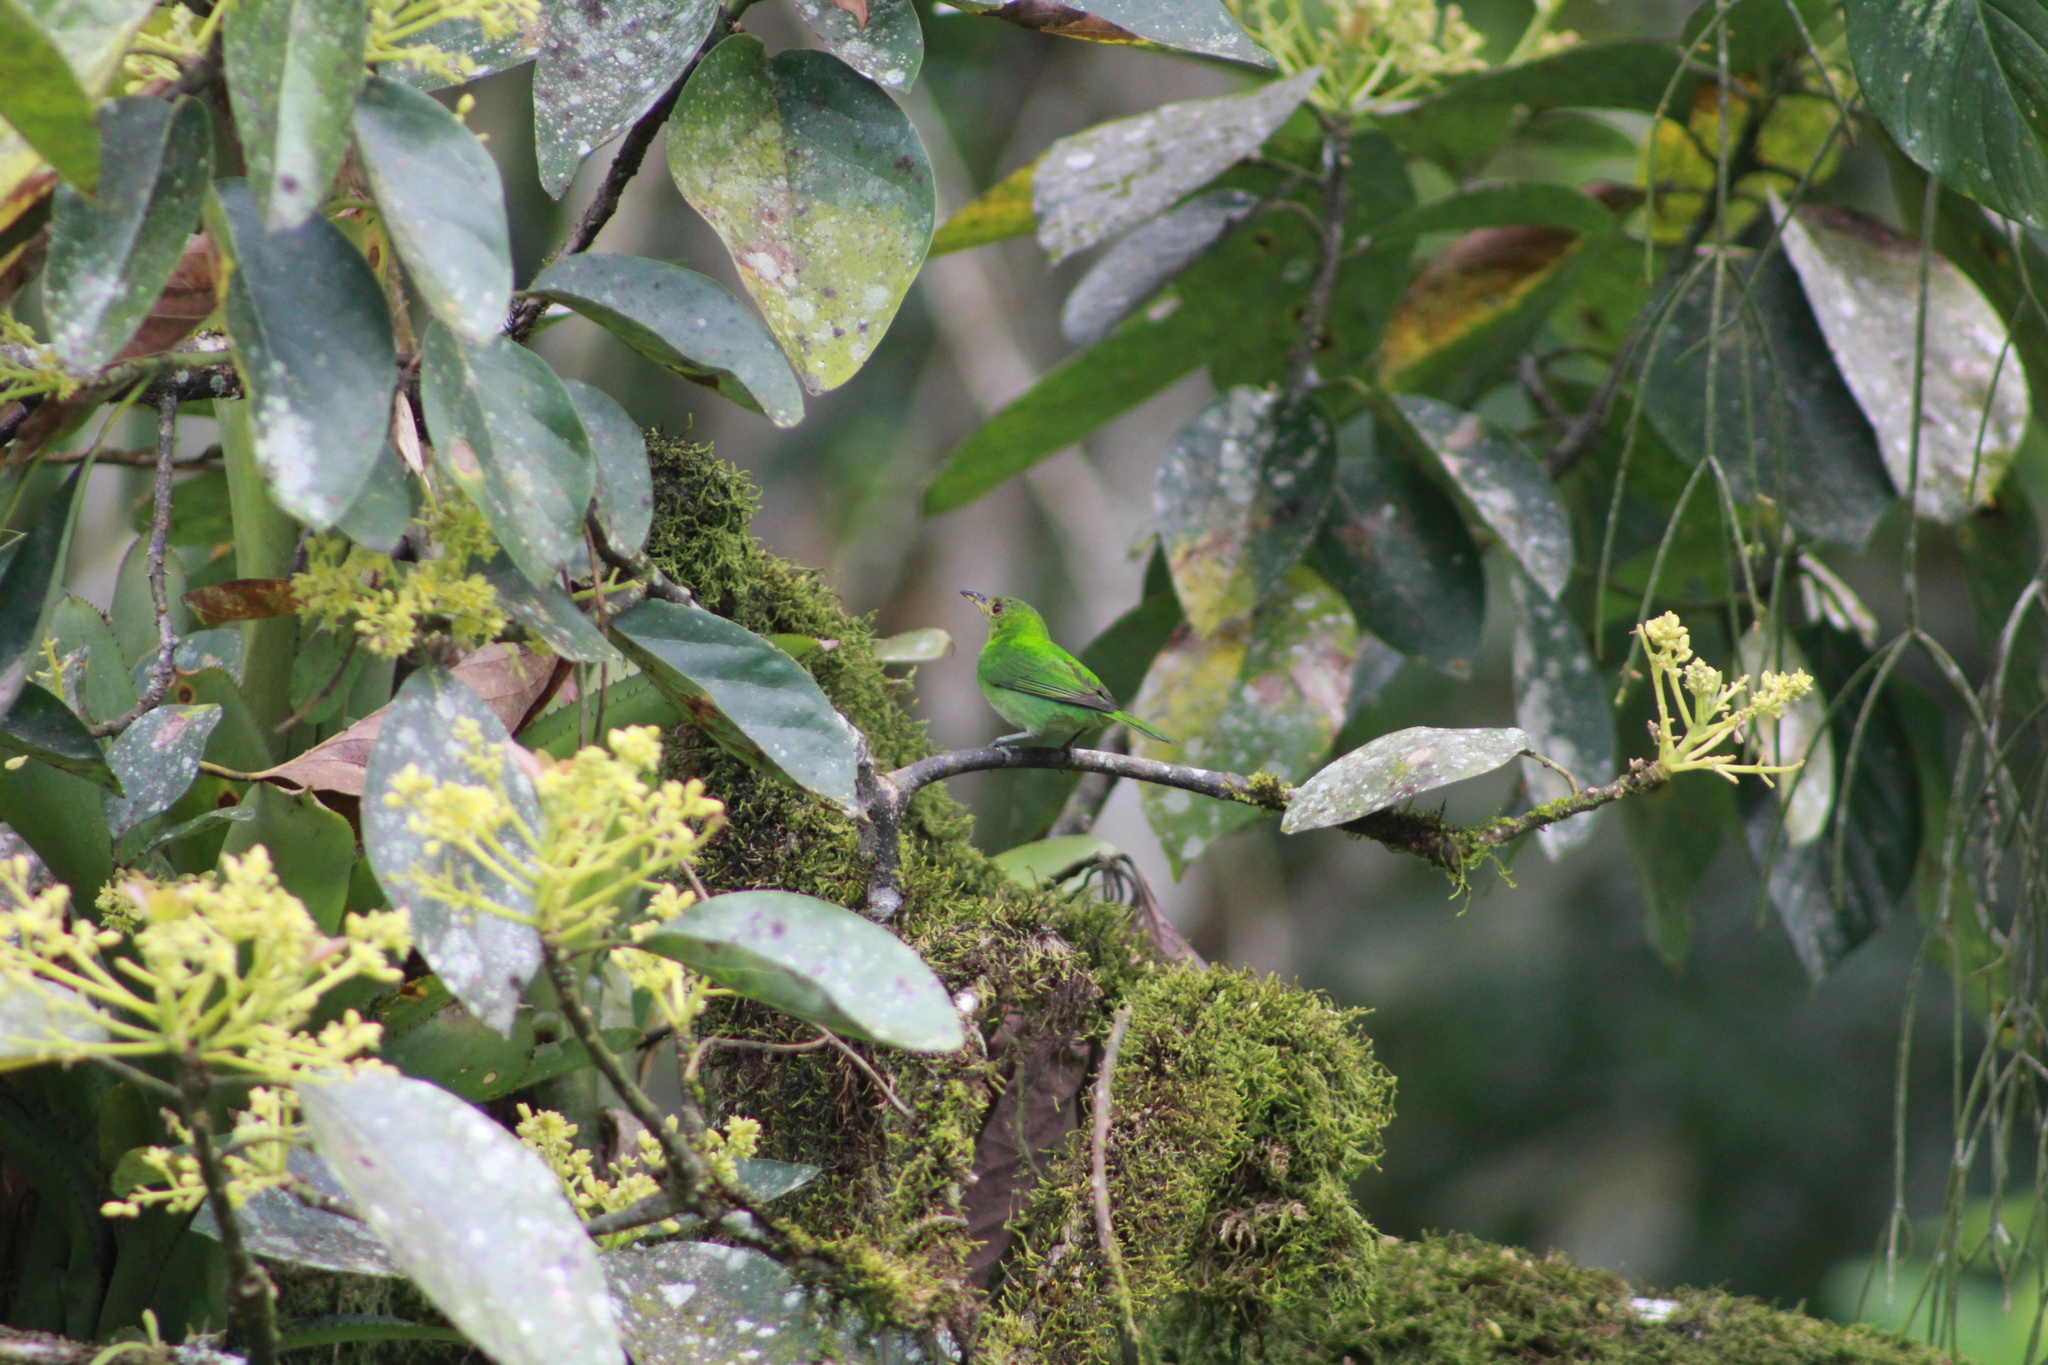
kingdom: Animalia
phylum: Chordata
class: Aves
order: Passeriformes
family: Thraupidae
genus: Chlorophanes
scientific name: Chlorophanes spiza
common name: Green honeycreeper
